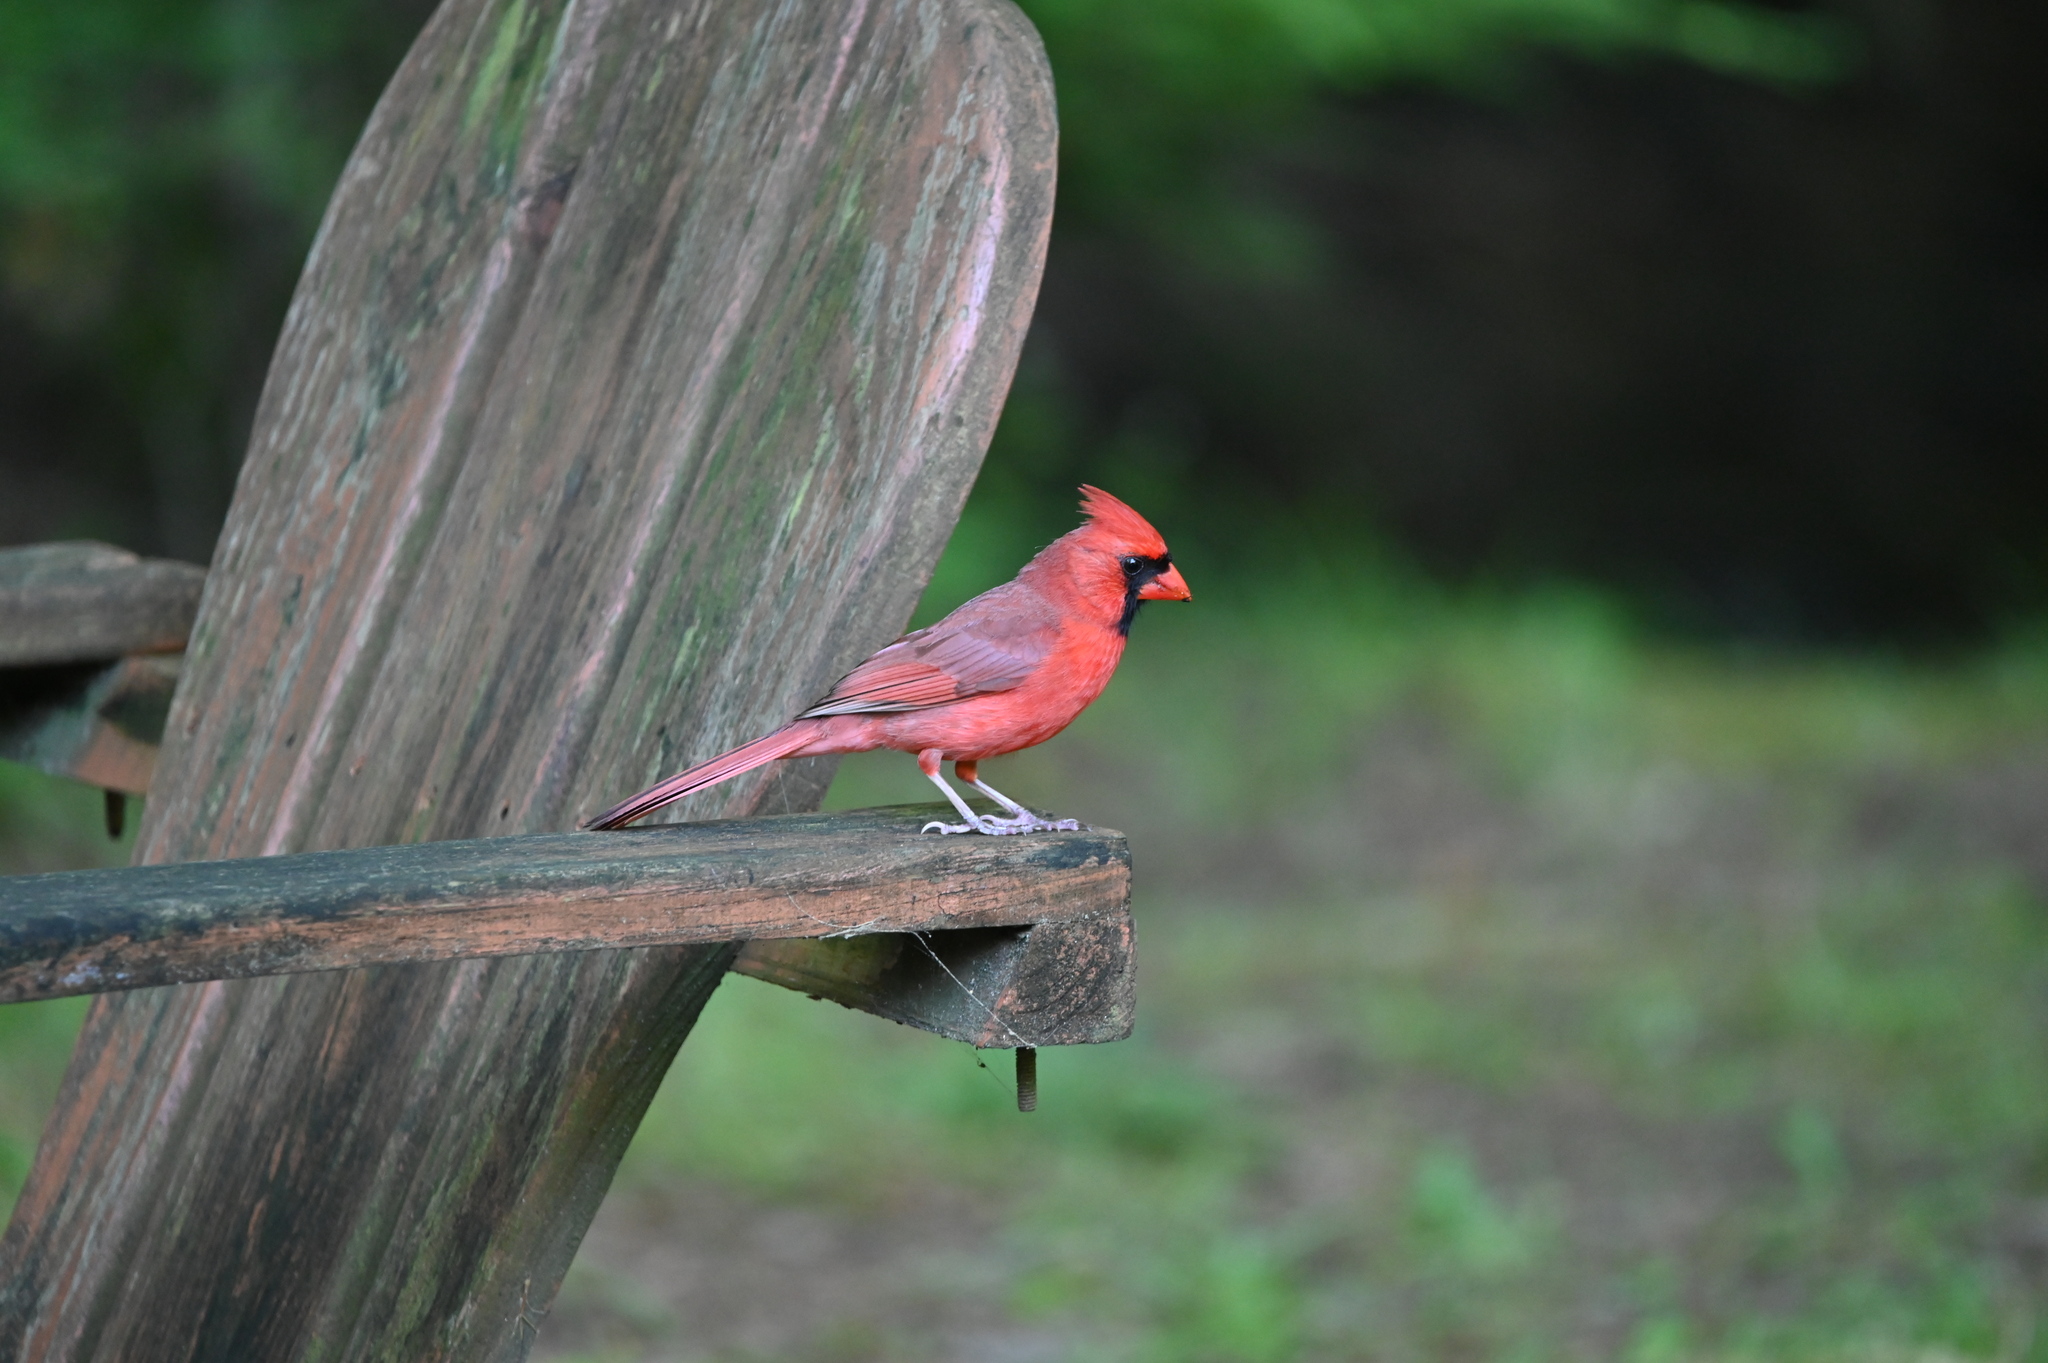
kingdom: Animalia
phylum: Chordata
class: Aves
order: Passeriformes
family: Cardinalidae
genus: Cardinalis
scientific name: Cardinalis cardinalis
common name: Northern cardinal
